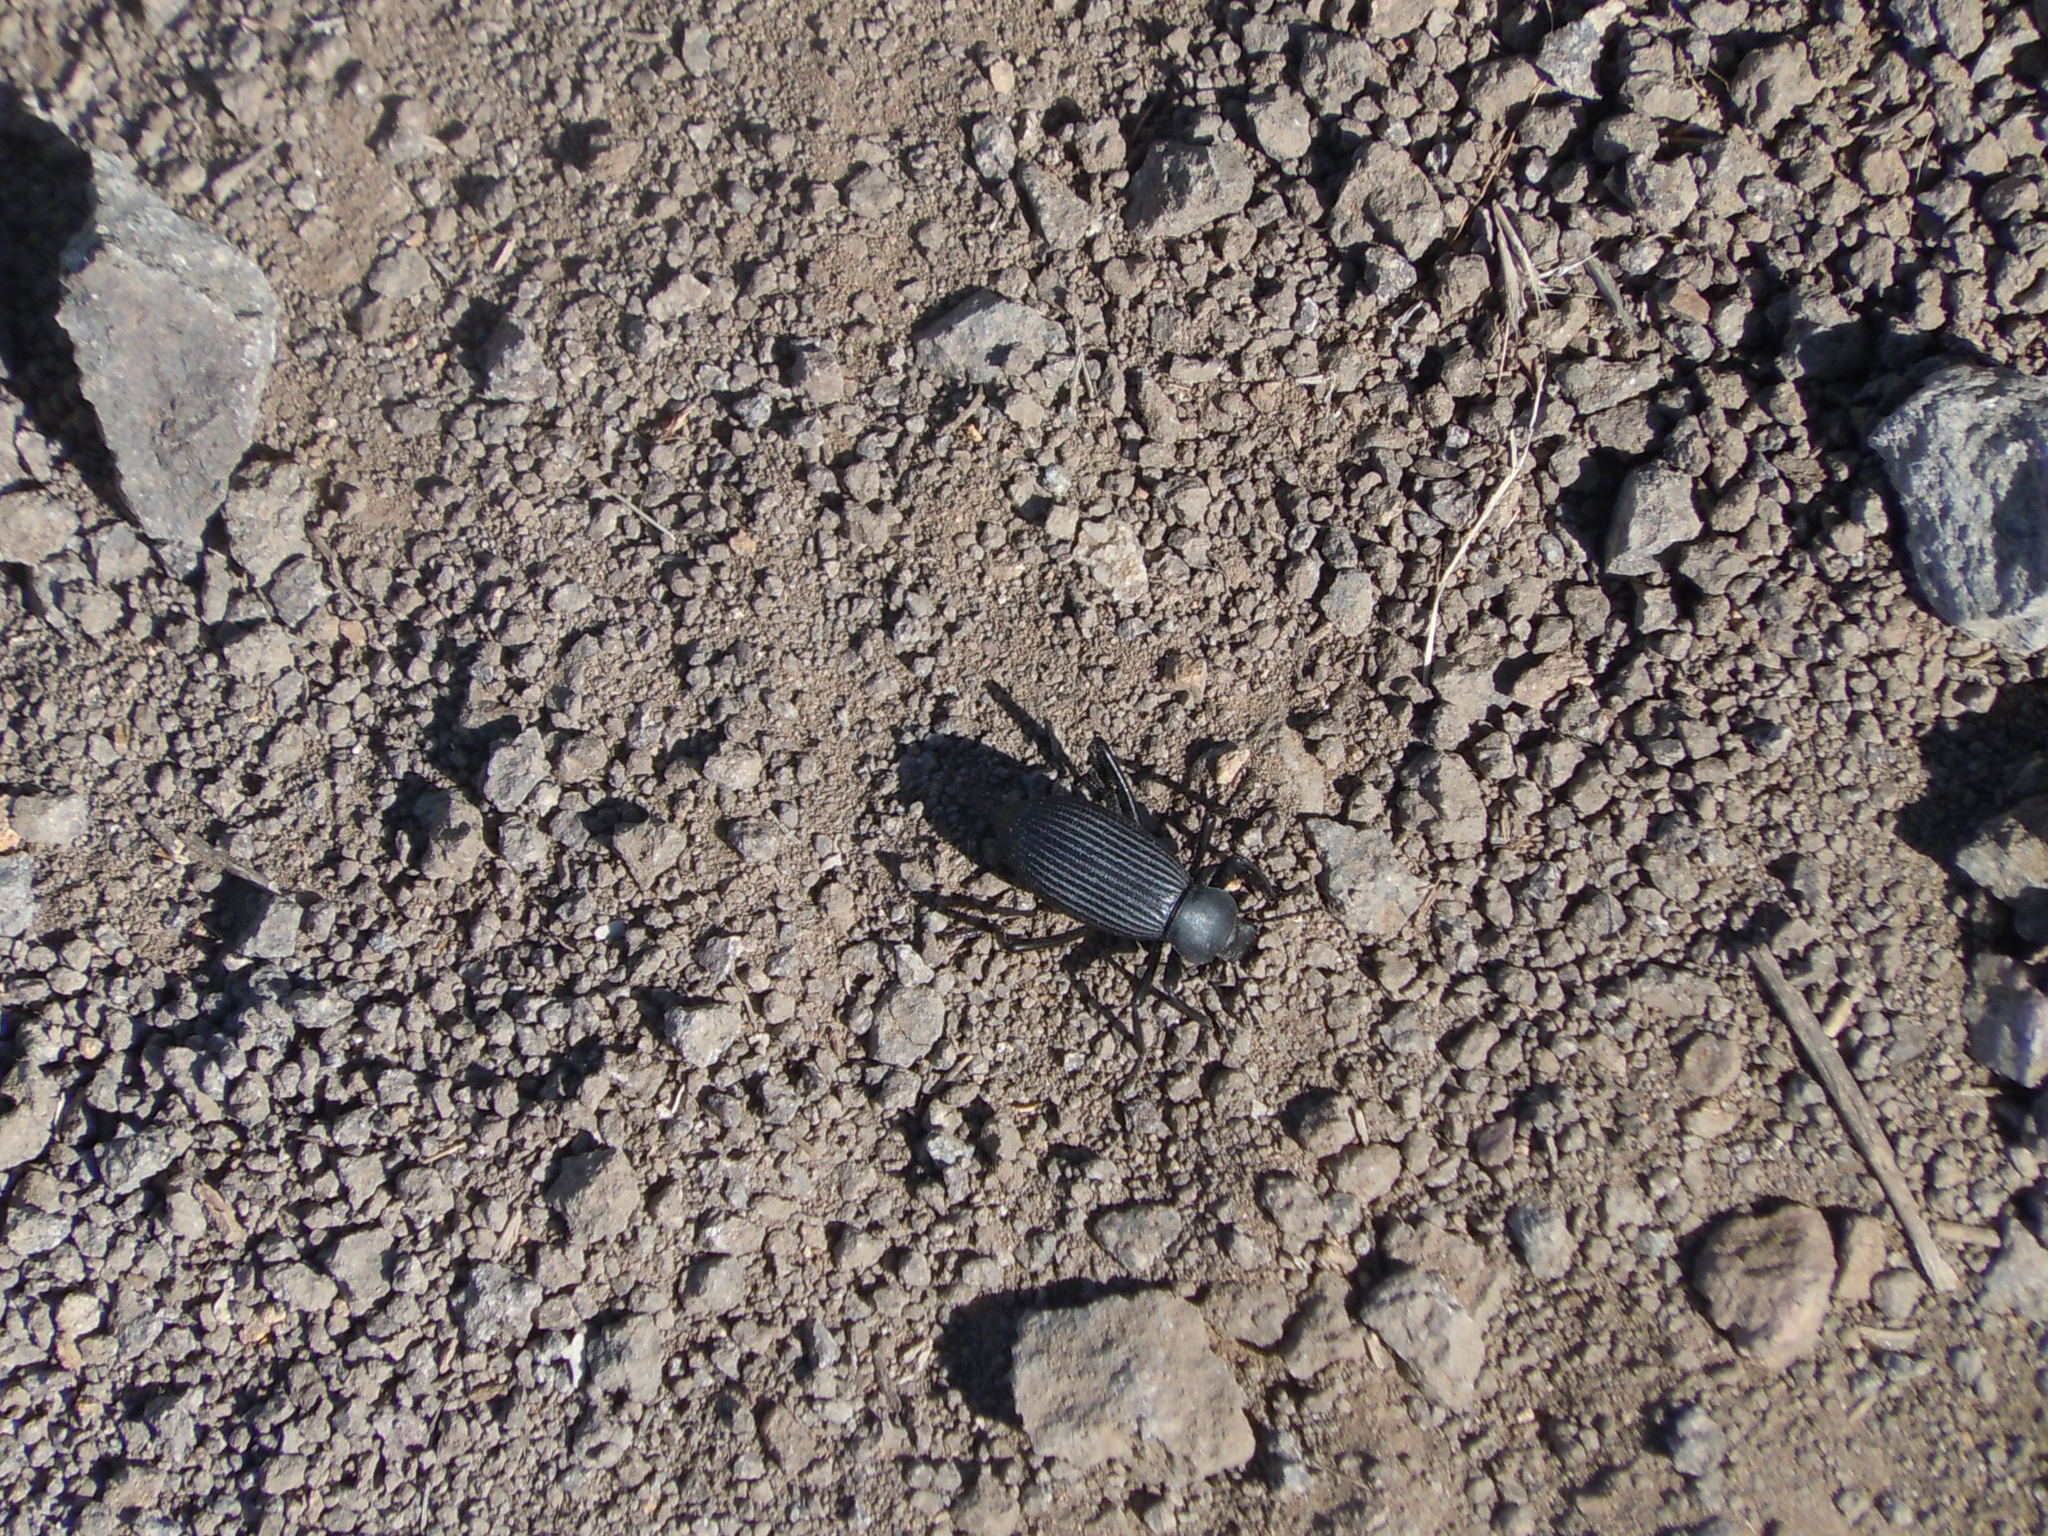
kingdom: Animalia
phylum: Arthropoda
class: Insecta
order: Coleoptera
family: Tenebrionidae
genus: Eleodes
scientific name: Eleodes hispilabris
